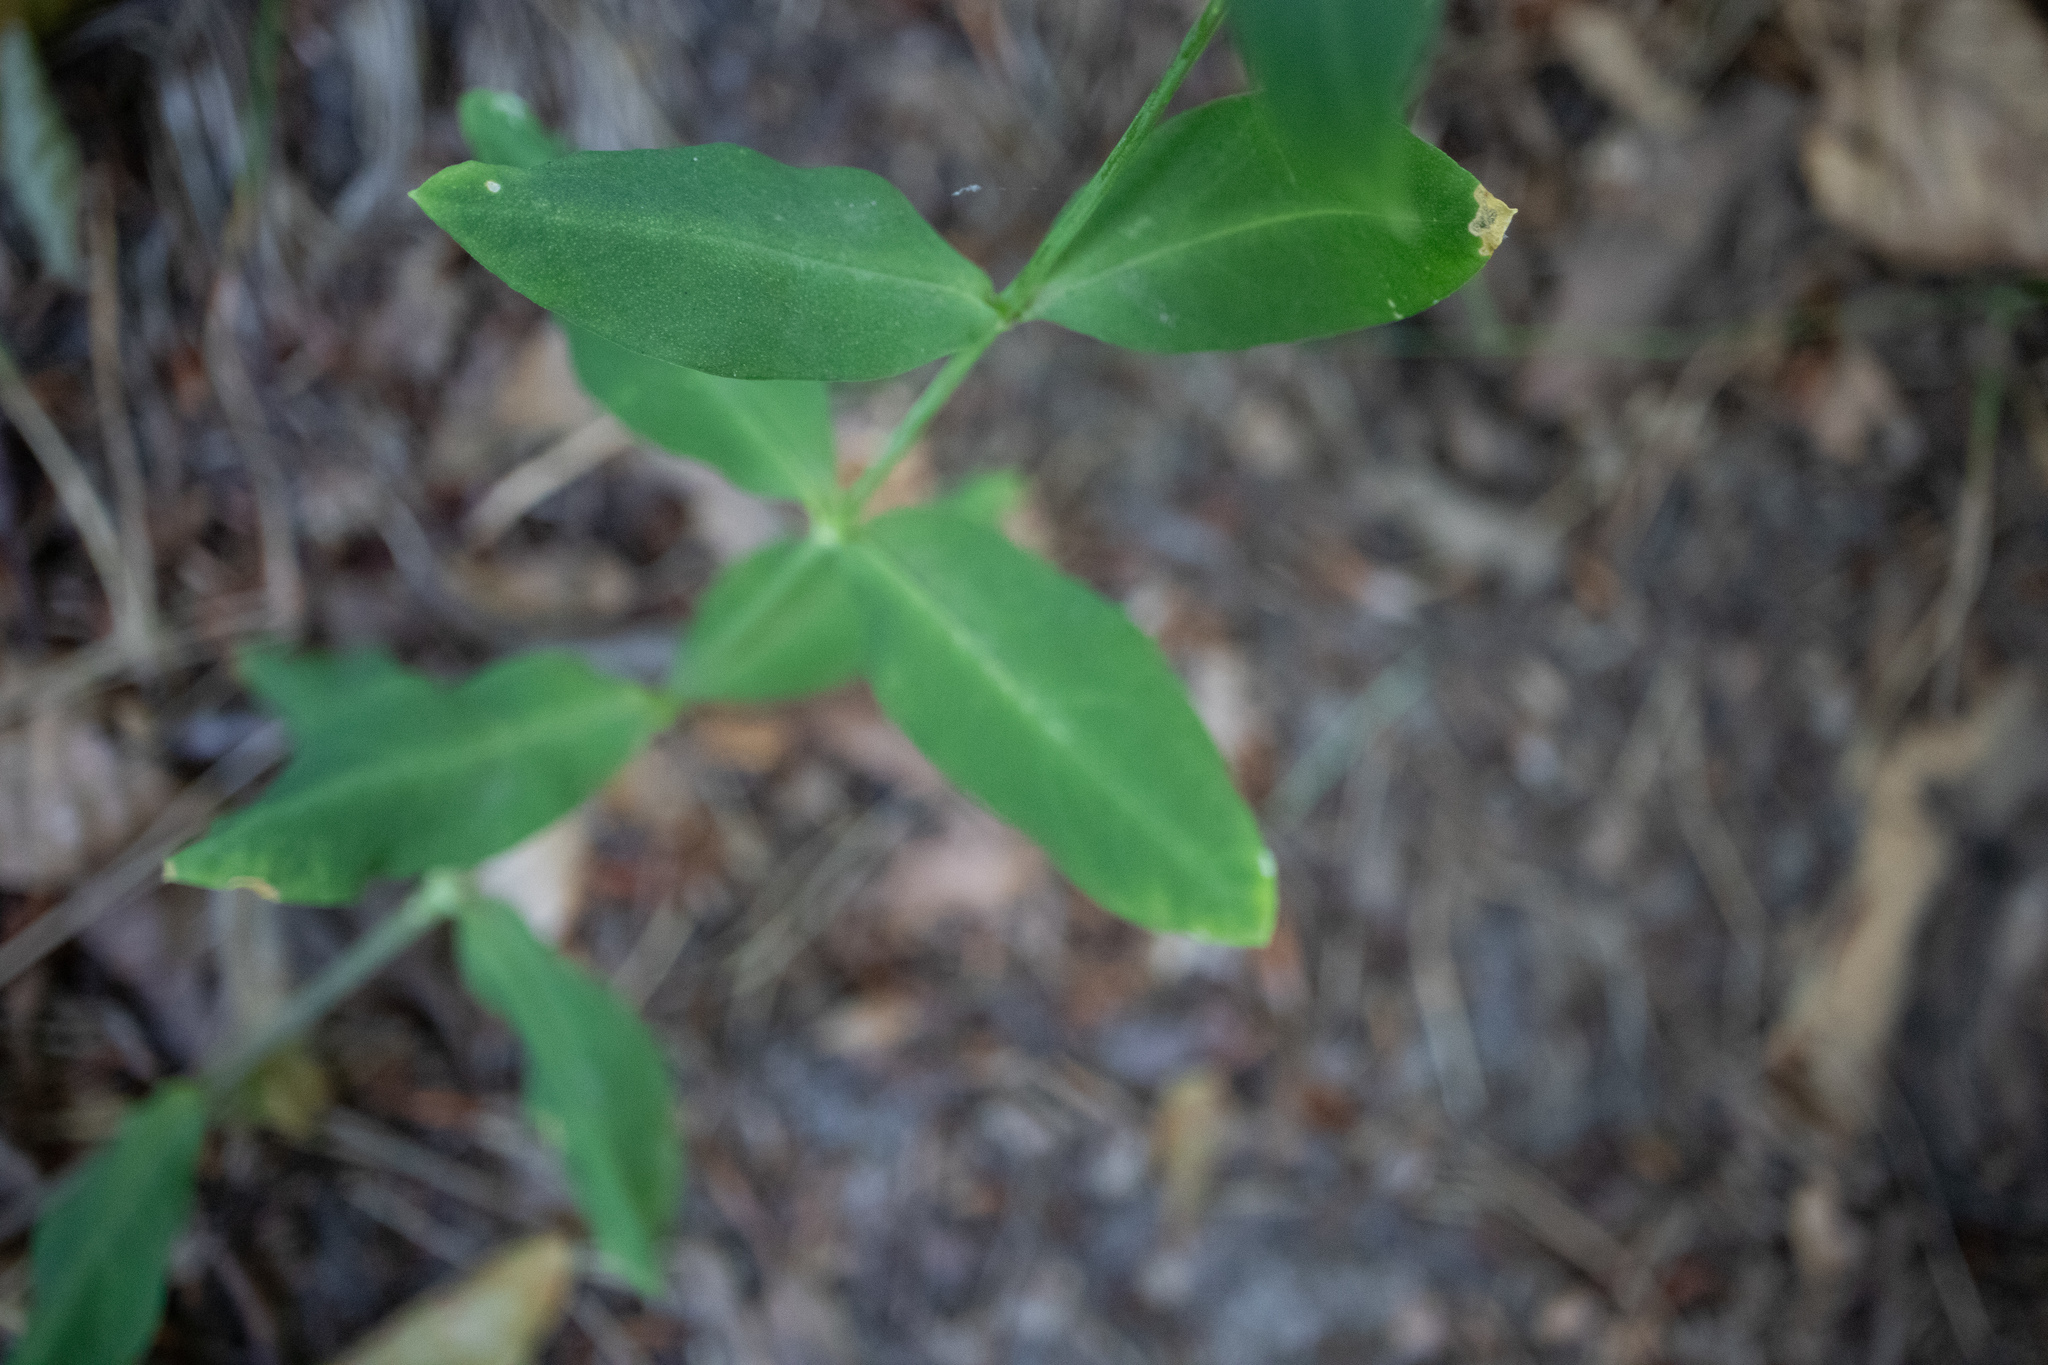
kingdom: Plantae
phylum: Tracheophyta
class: Magnoliopsida
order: Caryophyllales
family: Caryophyllaceae
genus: Silene
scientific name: Silene vulgaris
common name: Bladder campion
